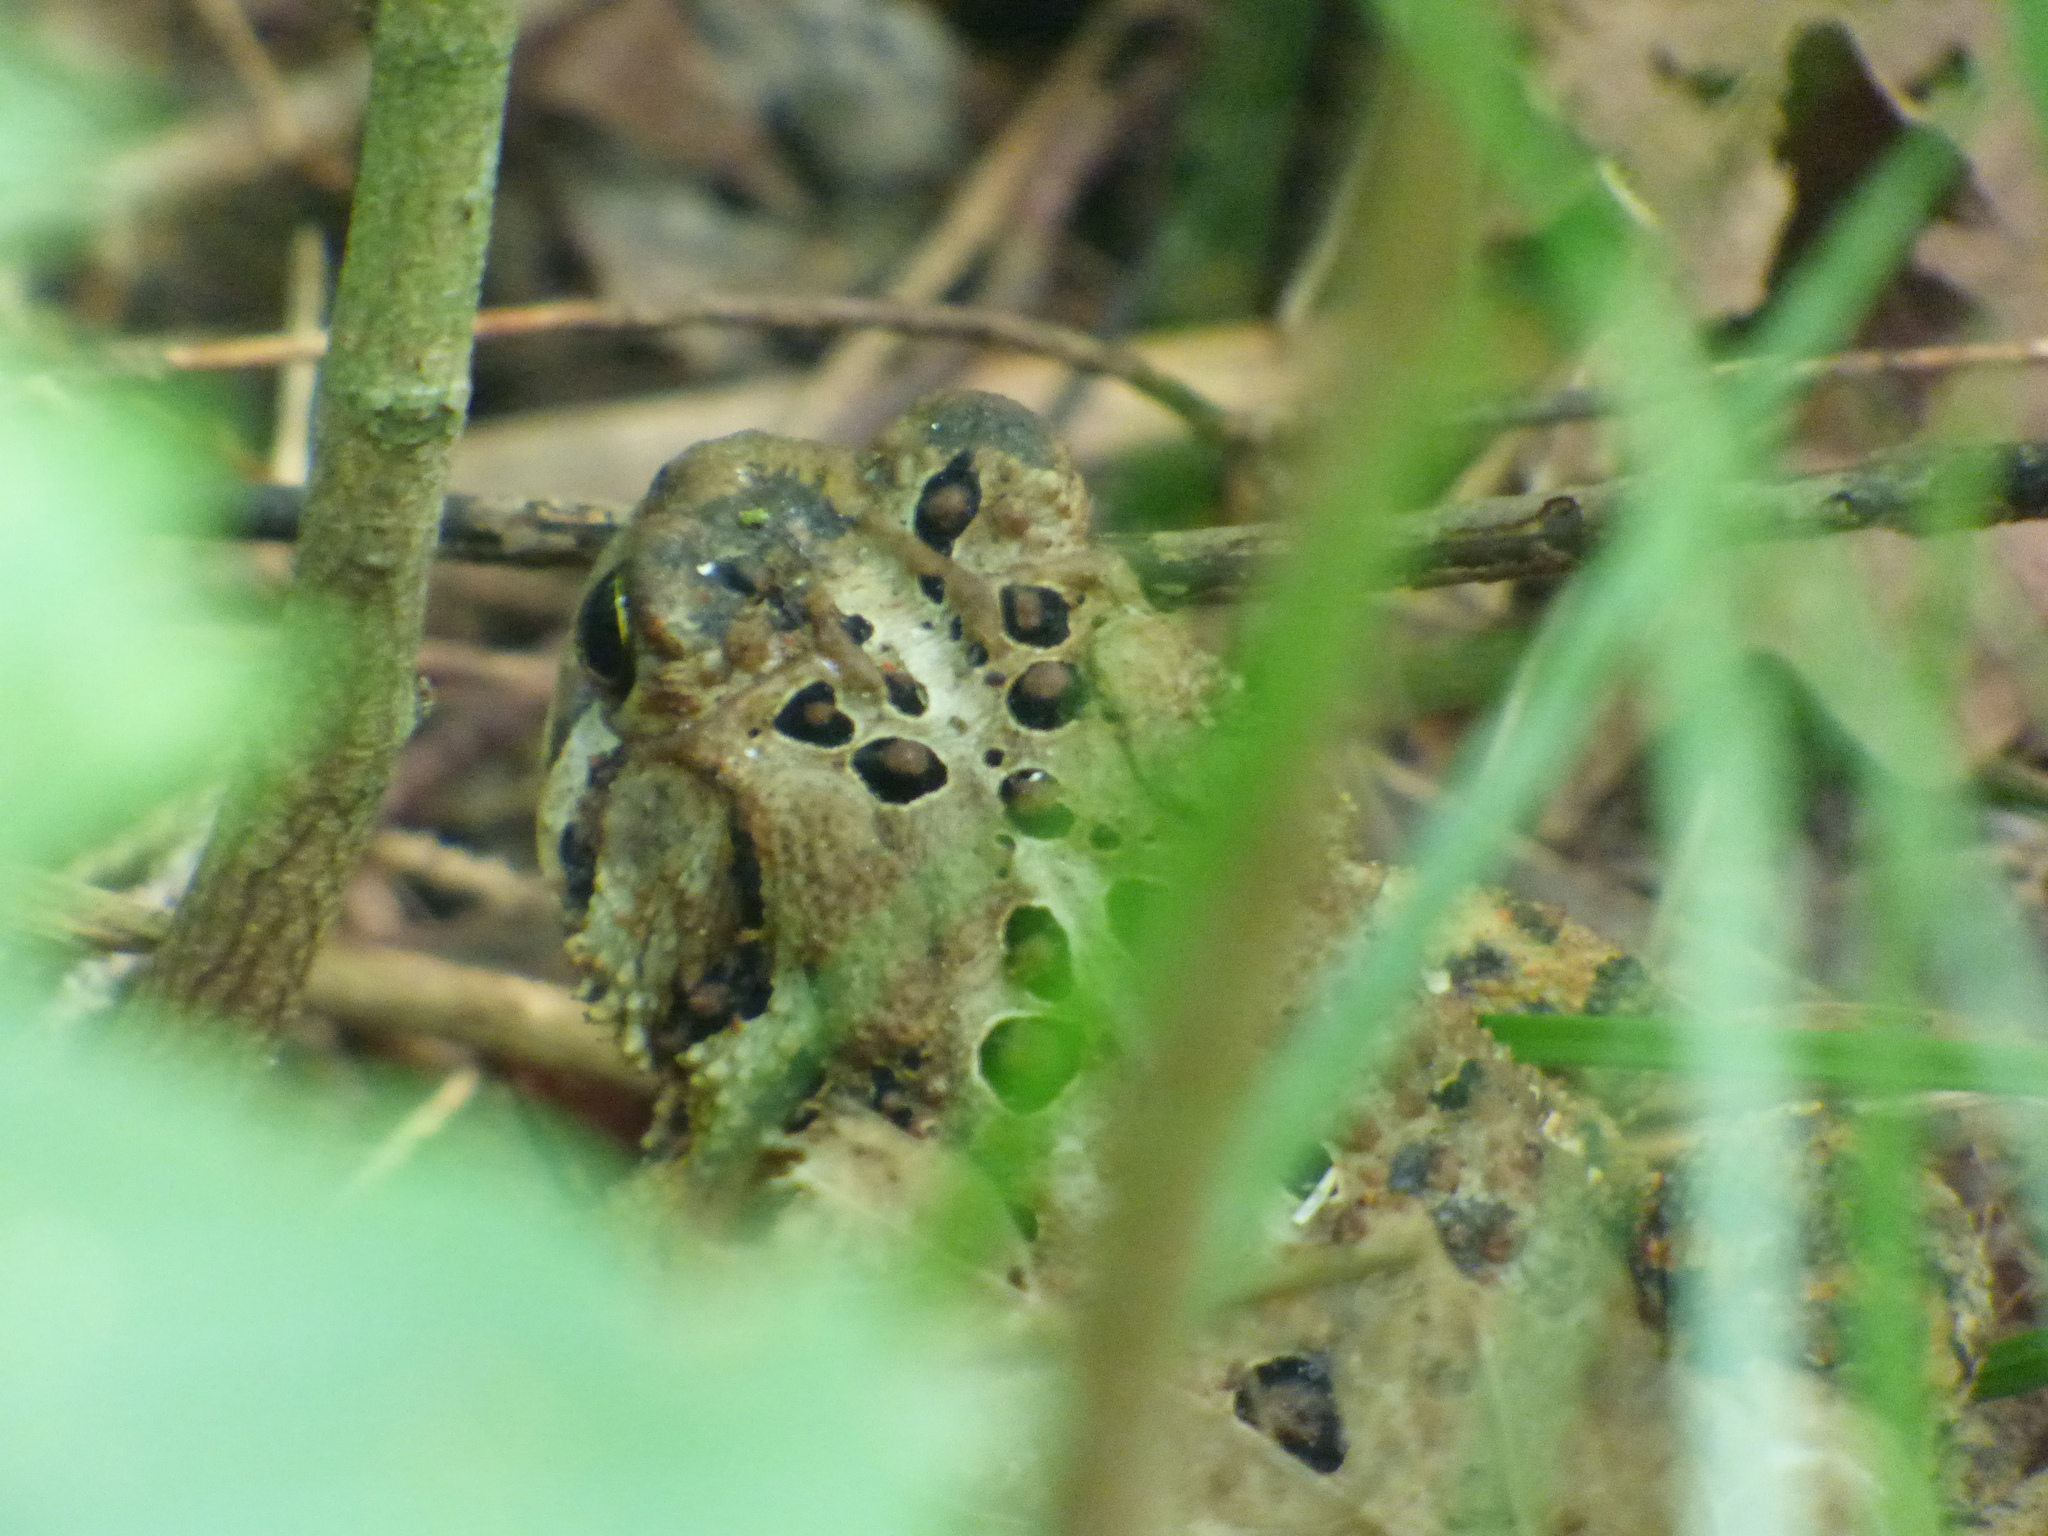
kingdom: Animalia
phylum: Chordata
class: Amphibia
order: Anura
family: Bufonidae
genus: Anaxyrus
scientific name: Anaxyrus americanus
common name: American toad
